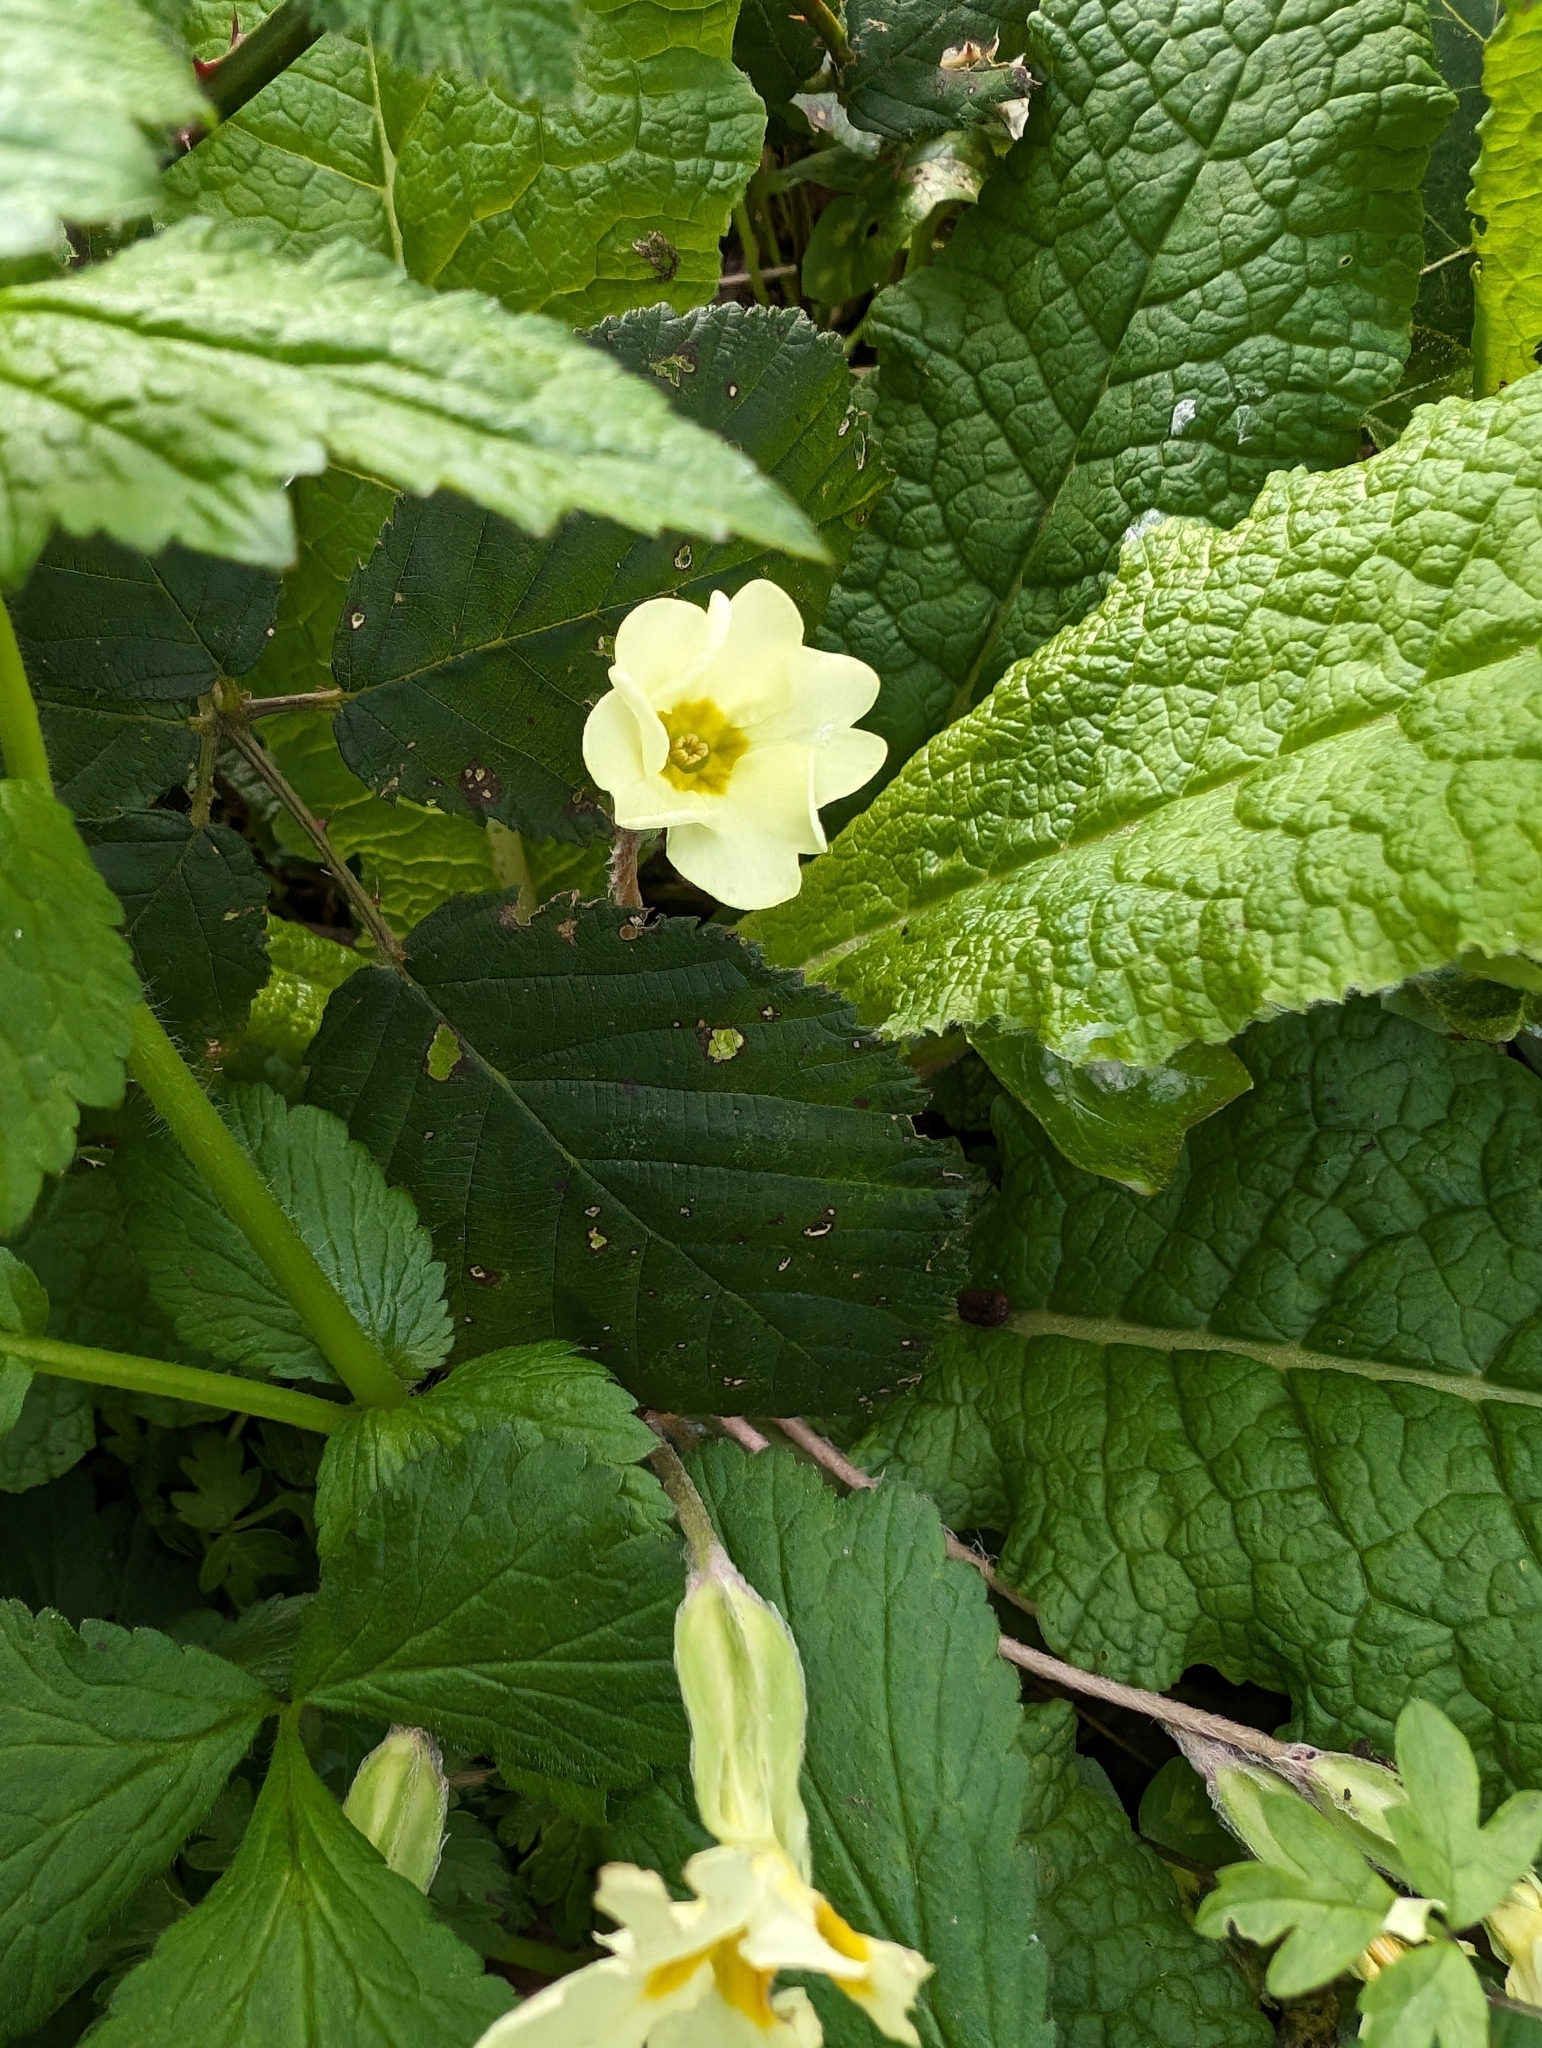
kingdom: Plantae
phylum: Tracheophyta
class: Magnoliopsida
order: Ericales
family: Primulaceae
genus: Primula
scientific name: Primula vulgaris
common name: Primrose
